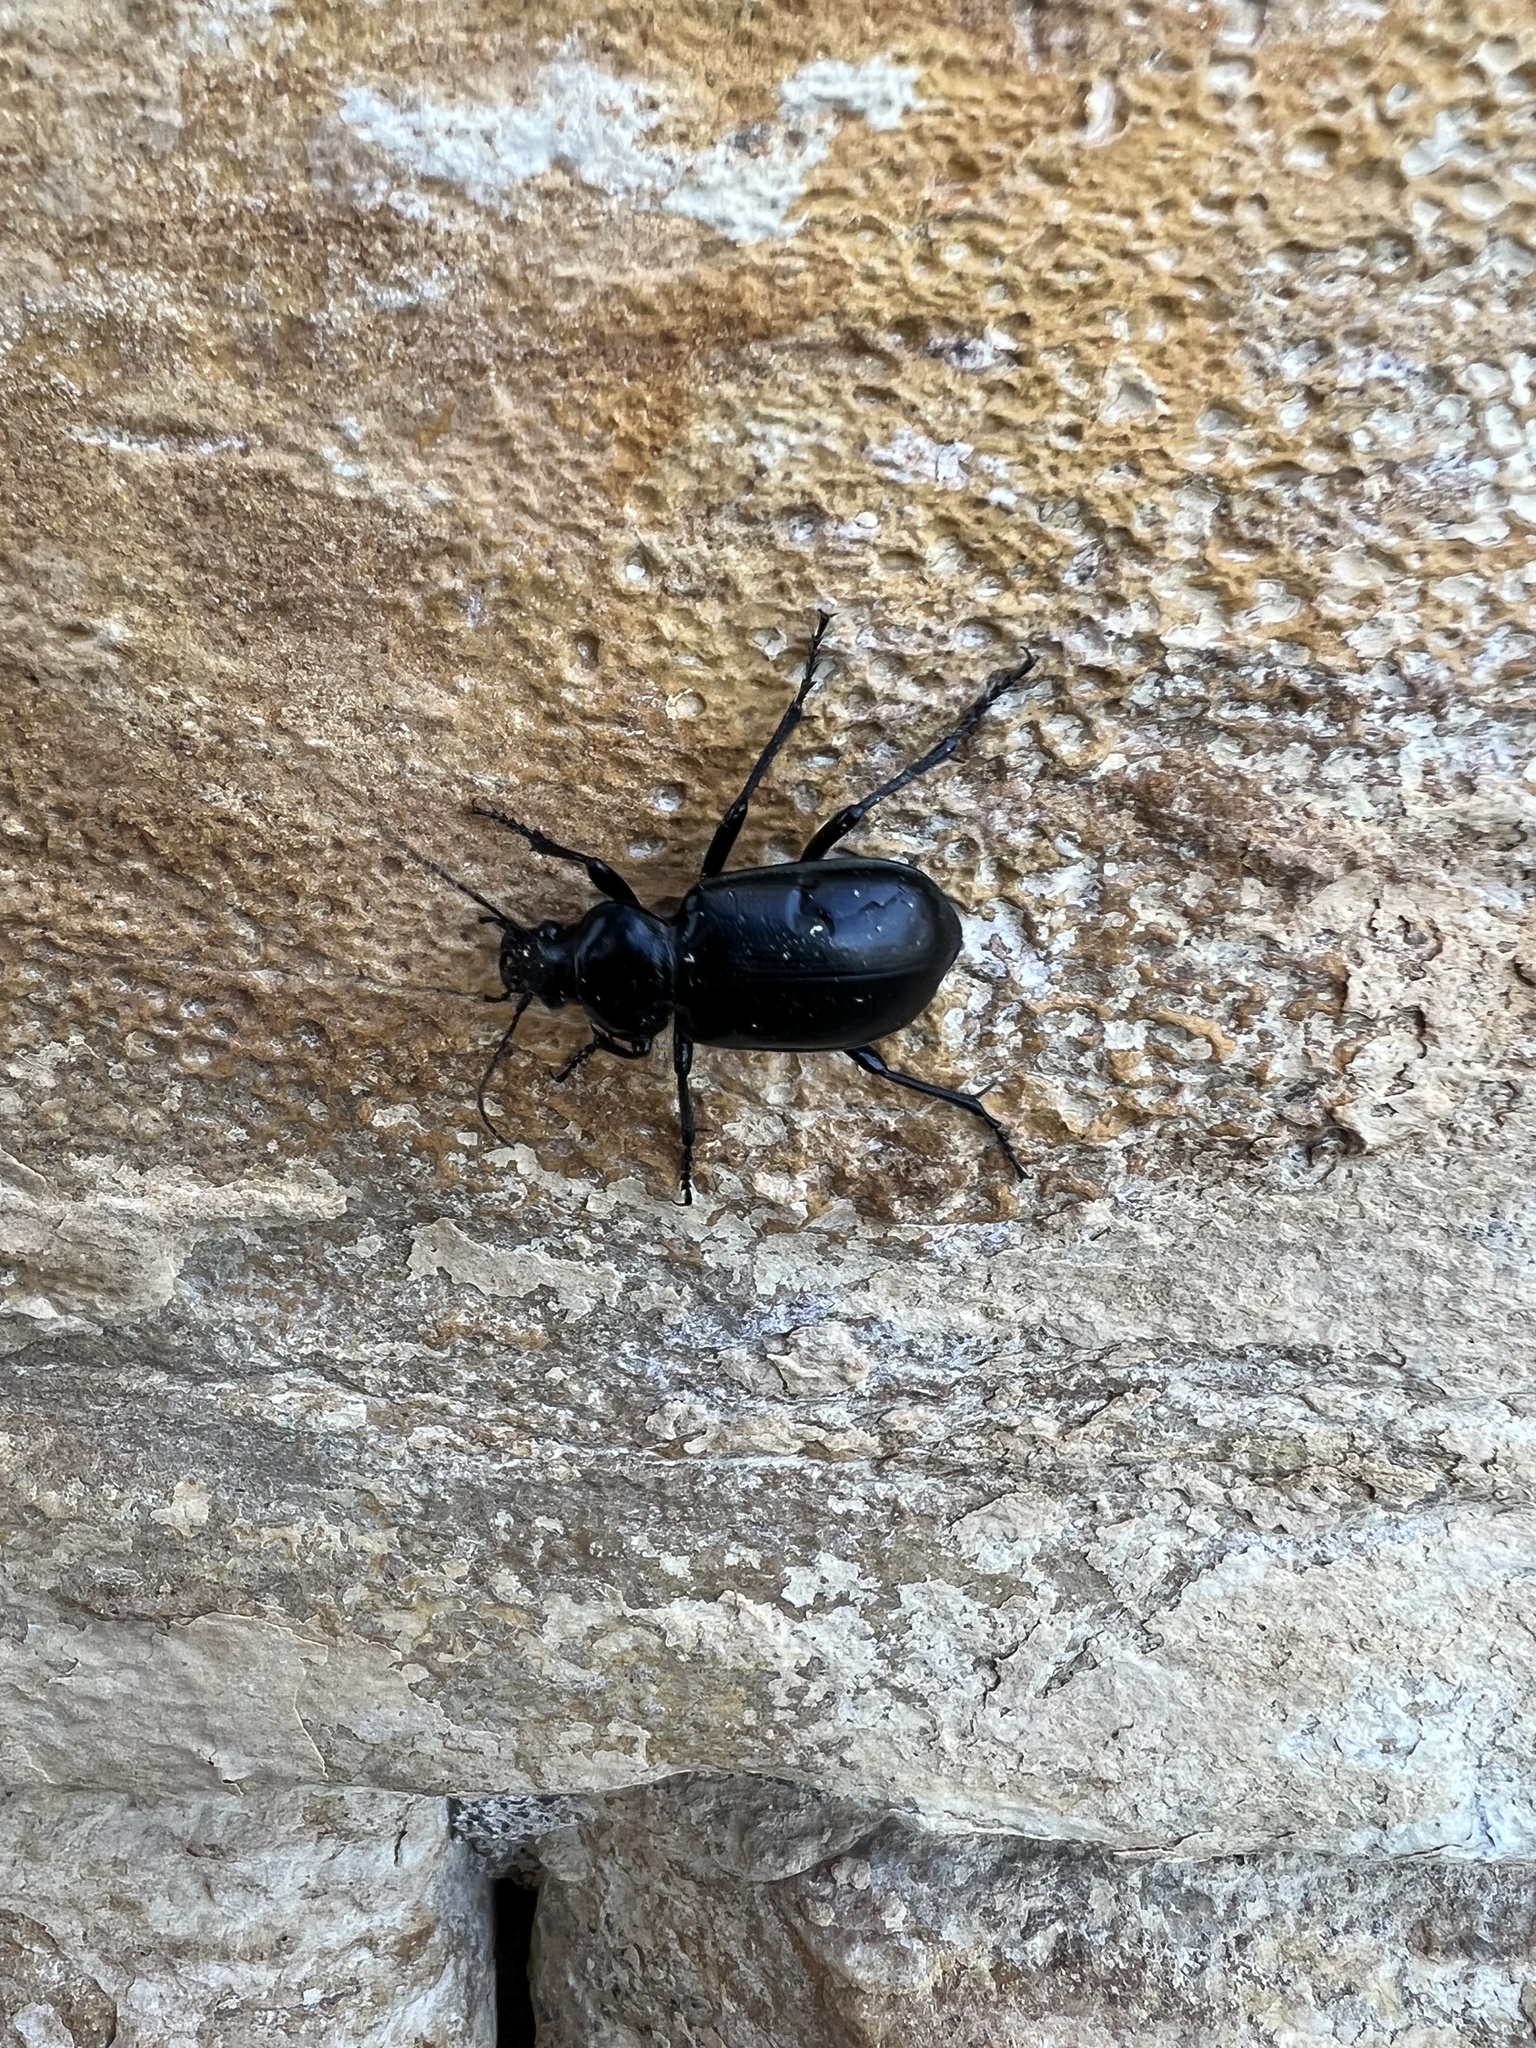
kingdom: Animalia
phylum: Arthropoda
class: Insecta
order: Coleoptera
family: Carabidae
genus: Calosoma
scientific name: Calosoma
